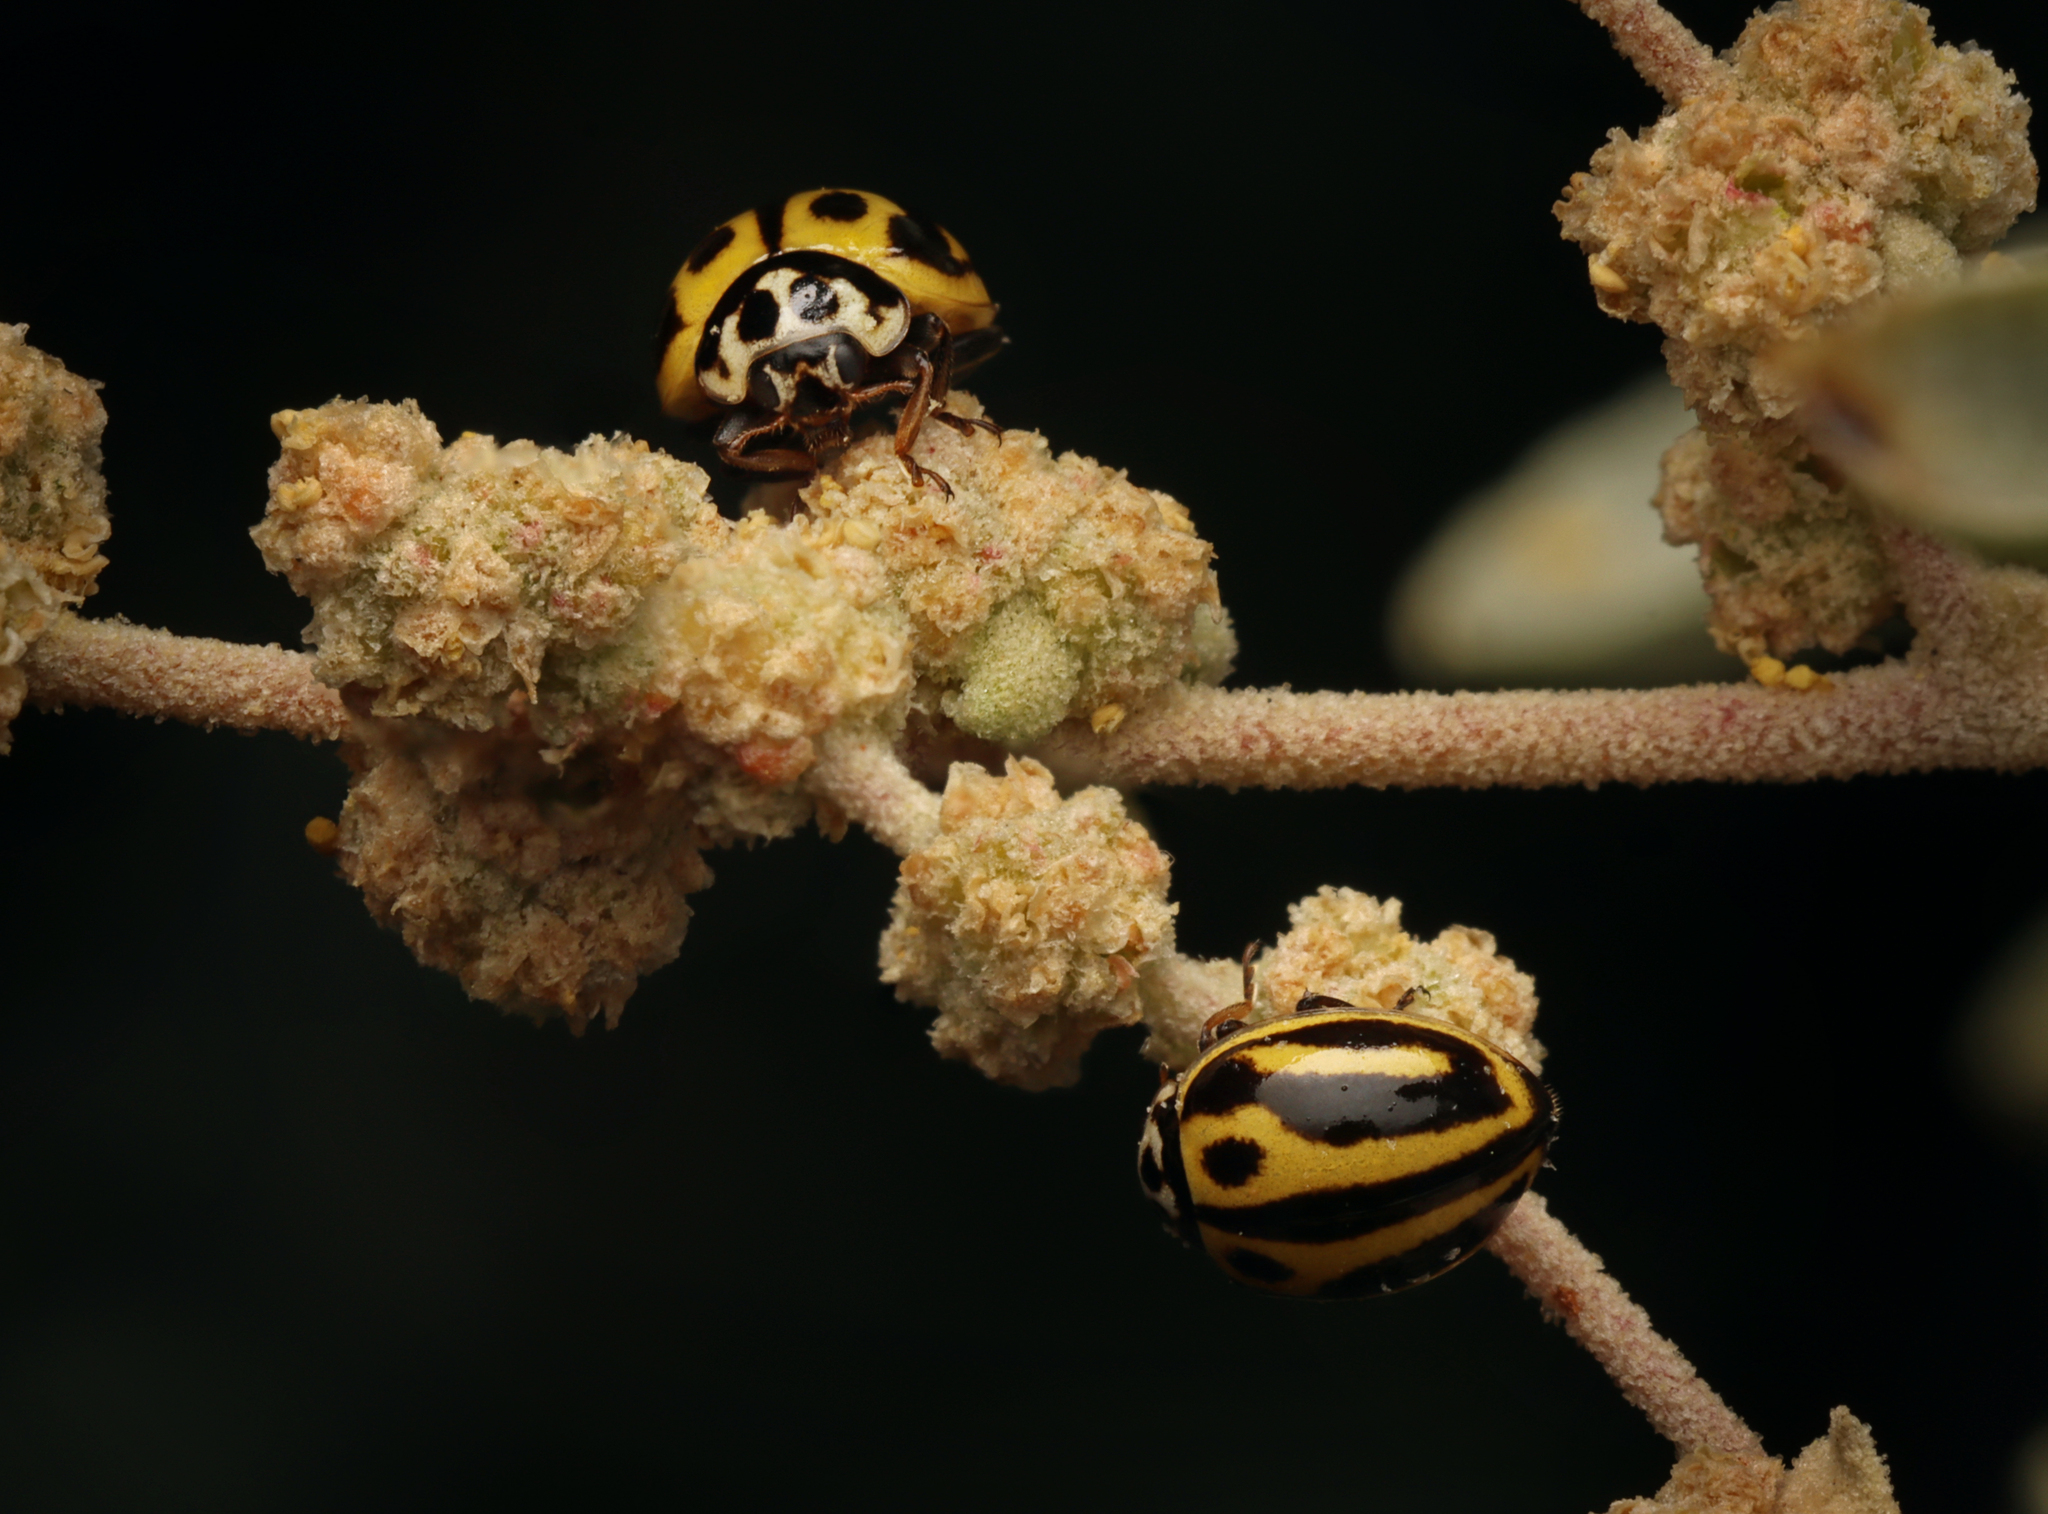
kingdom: Animalia
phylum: Arthropoda
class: Insecta
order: Coleoptera
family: Coccinellidae
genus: Micraspis
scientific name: Micraspis
